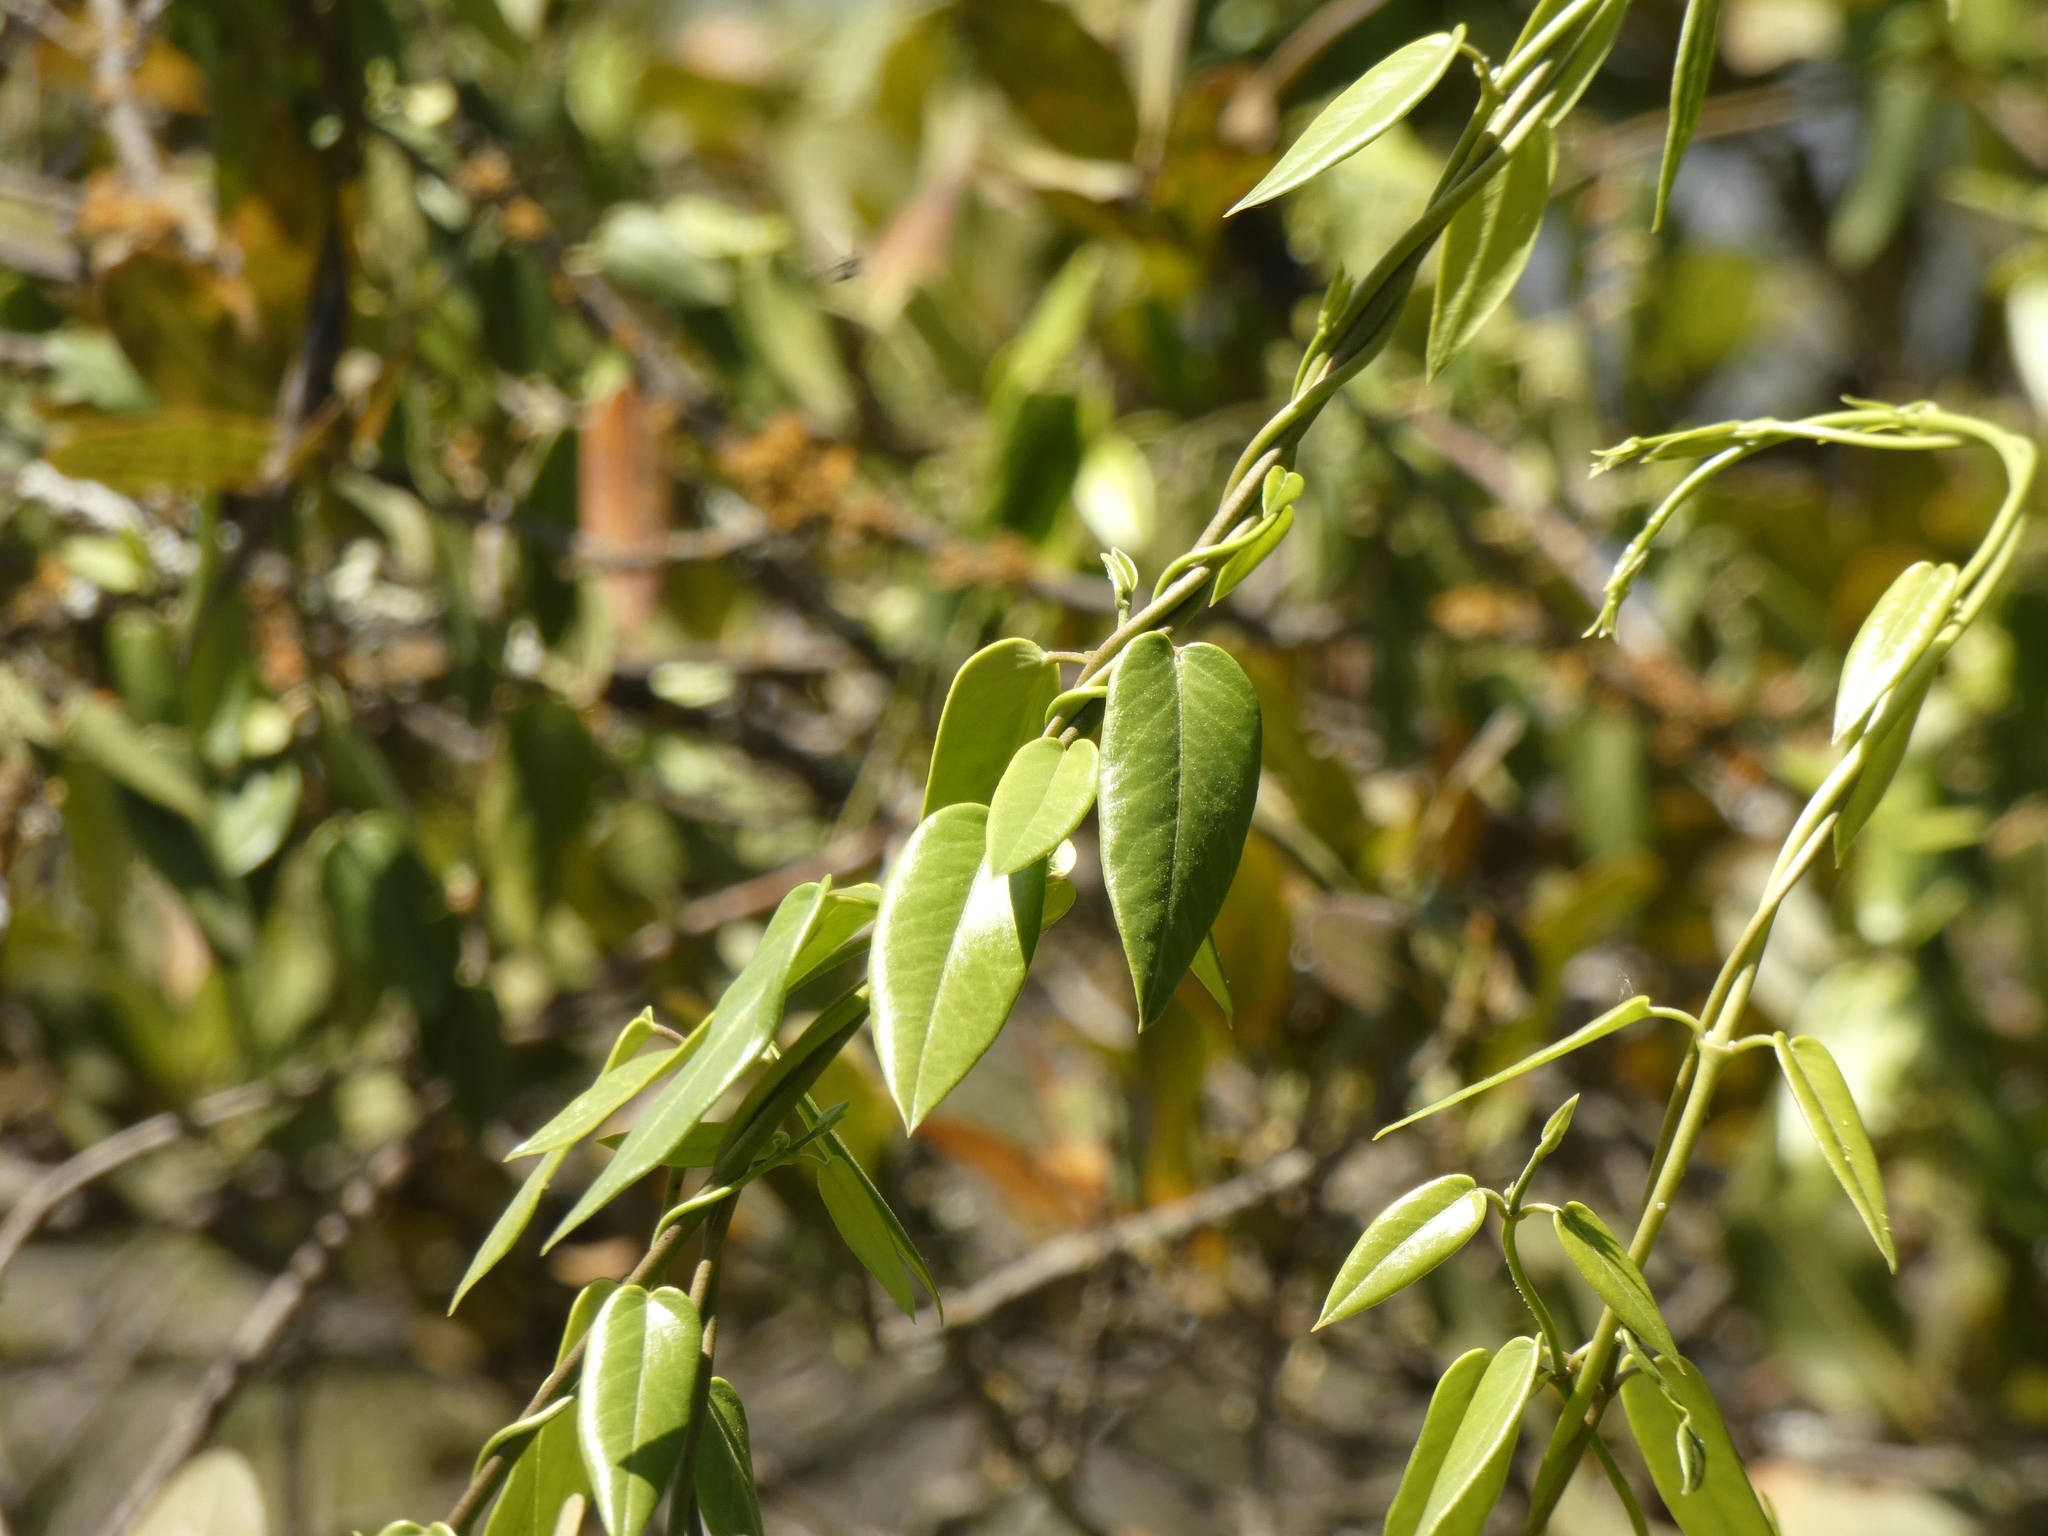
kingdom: Plantae
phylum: Tracheophyta
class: Magnoliopsida
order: Gentianales
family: Apocynaceae
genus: Diplolepis
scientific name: Diplolepis menziesii
